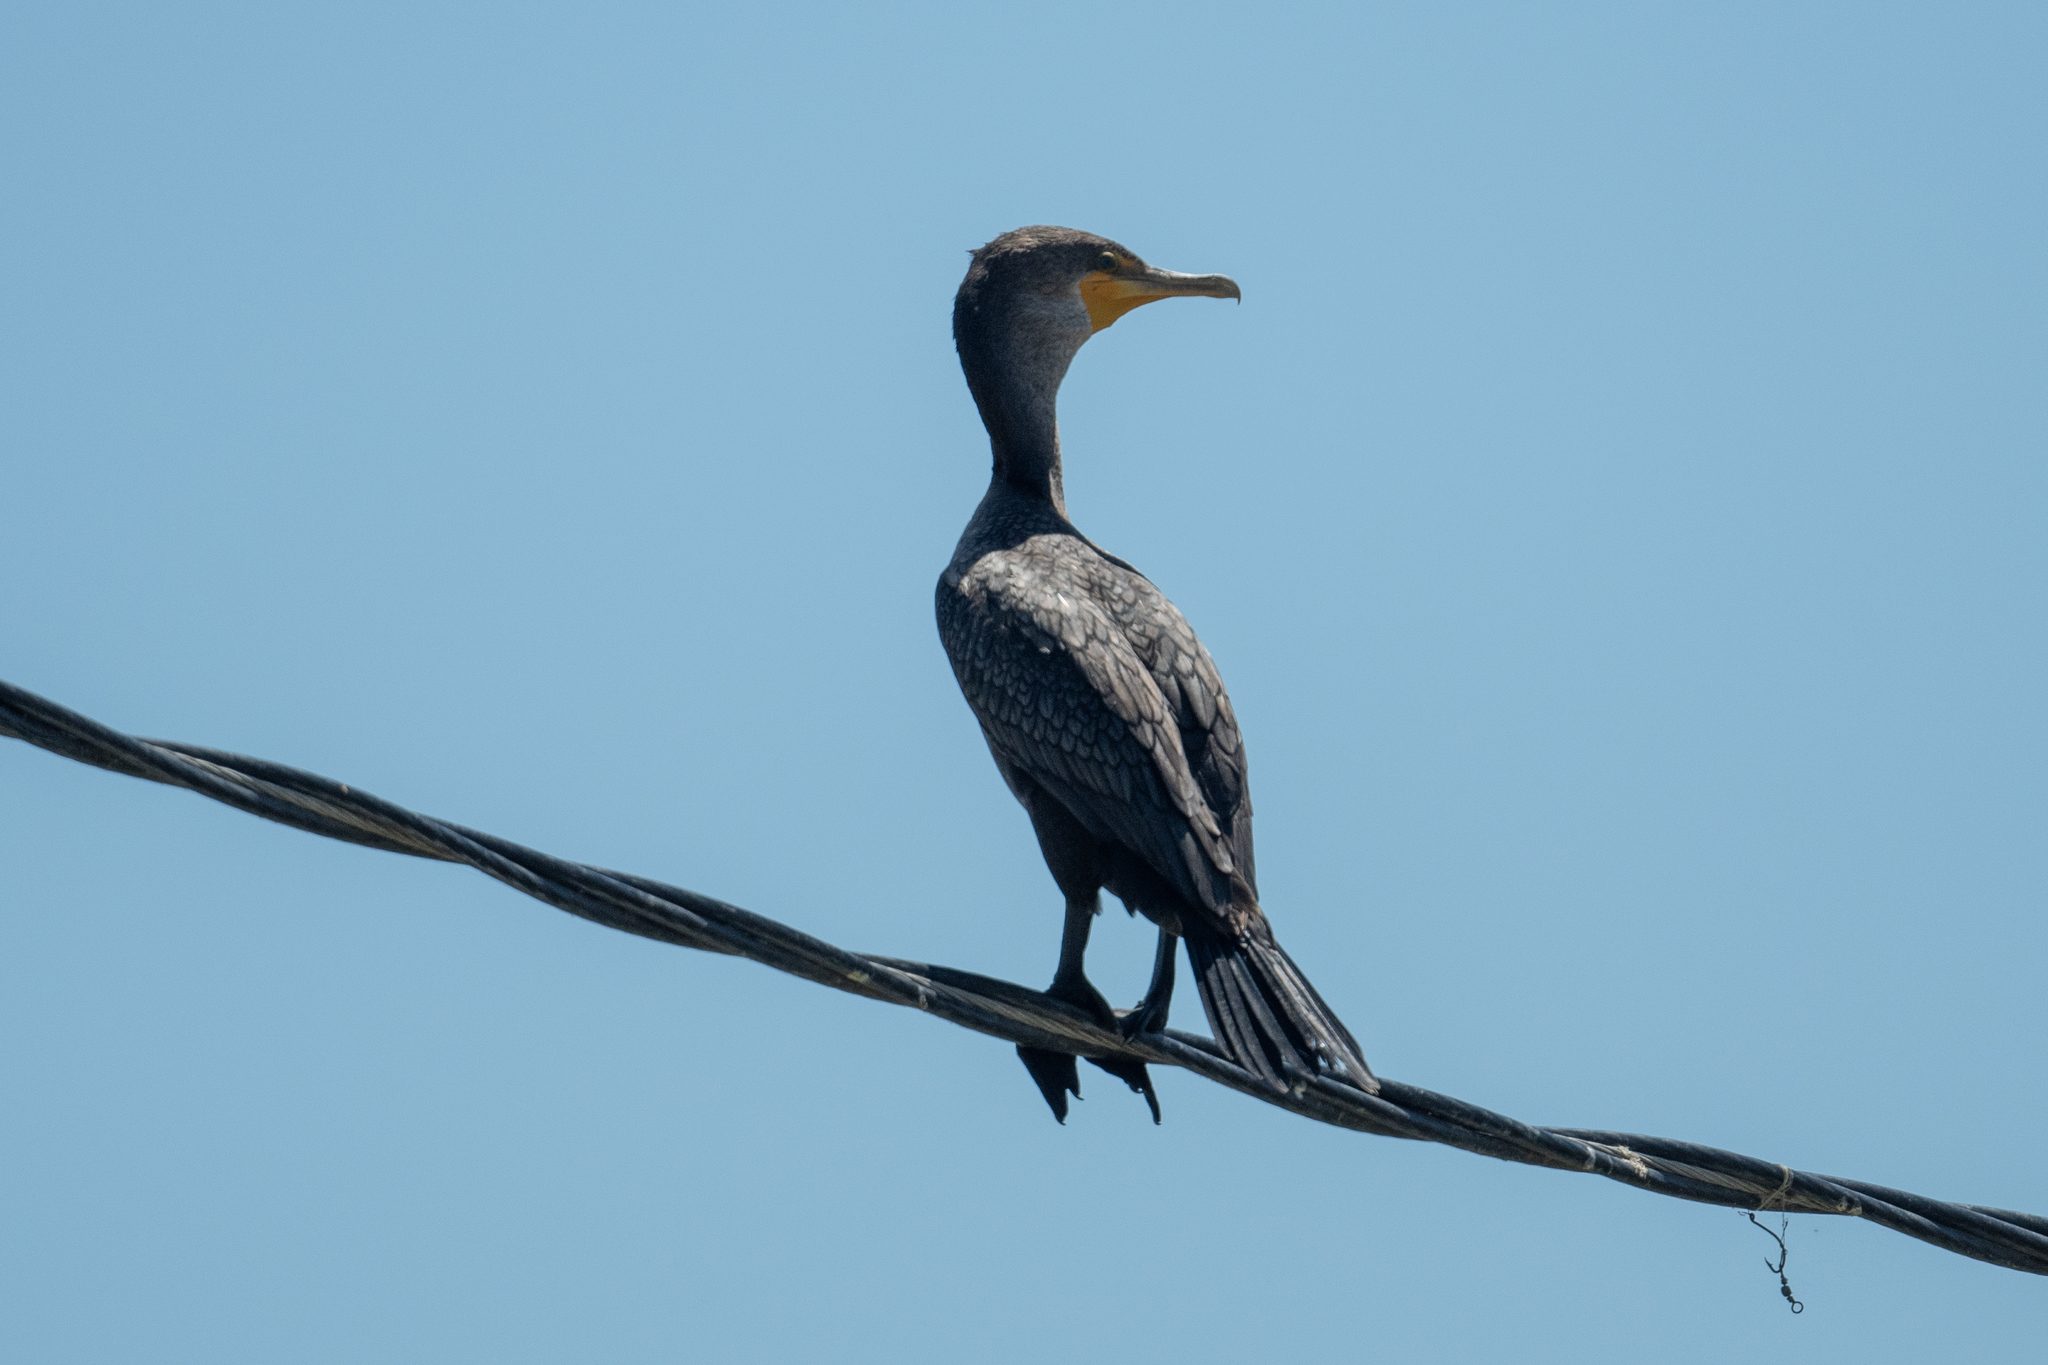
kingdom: Animalia
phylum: Chordata
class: Aves
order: Suliformes
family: Phalacrocoracidae
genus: Phalacrocorax
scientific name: Phalacrocorax auritus
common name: Double-crested cormorant
